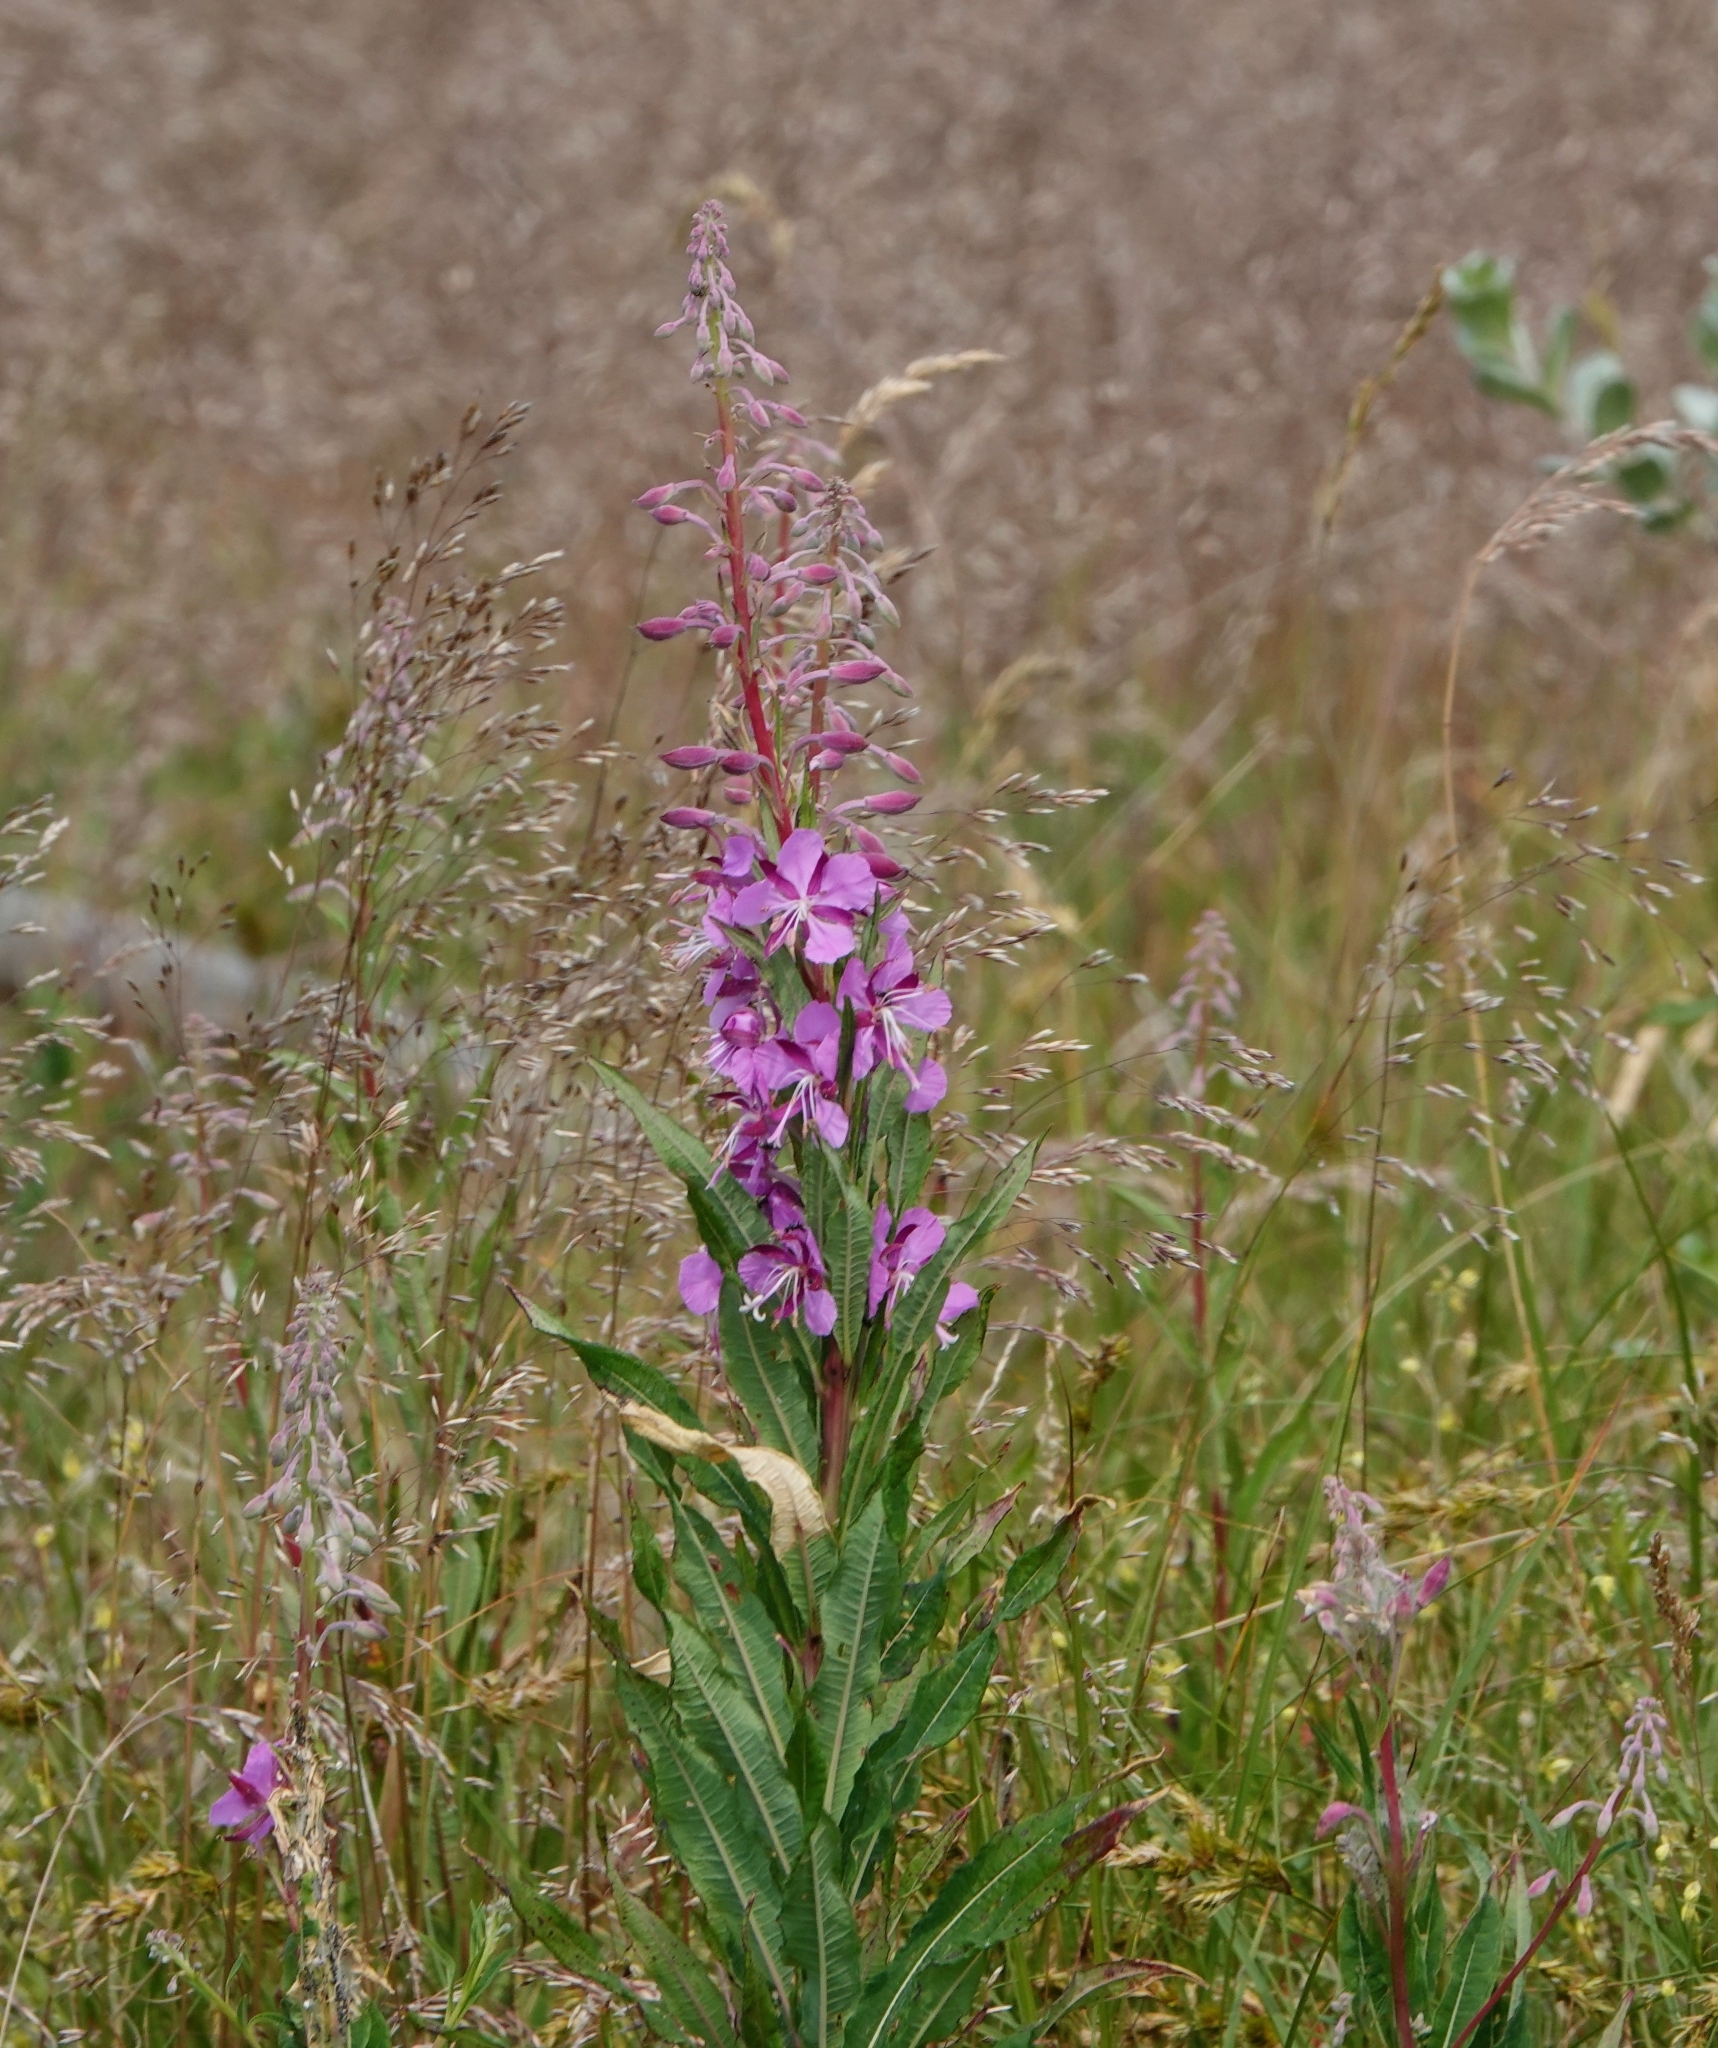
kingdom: Plantae
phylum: Tracheophyta
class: Magnoliopsida
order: Myrtales
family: Onagraceae
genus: Chamaenerion
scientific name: Chamaenerion angustifolium
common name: Fireweed
